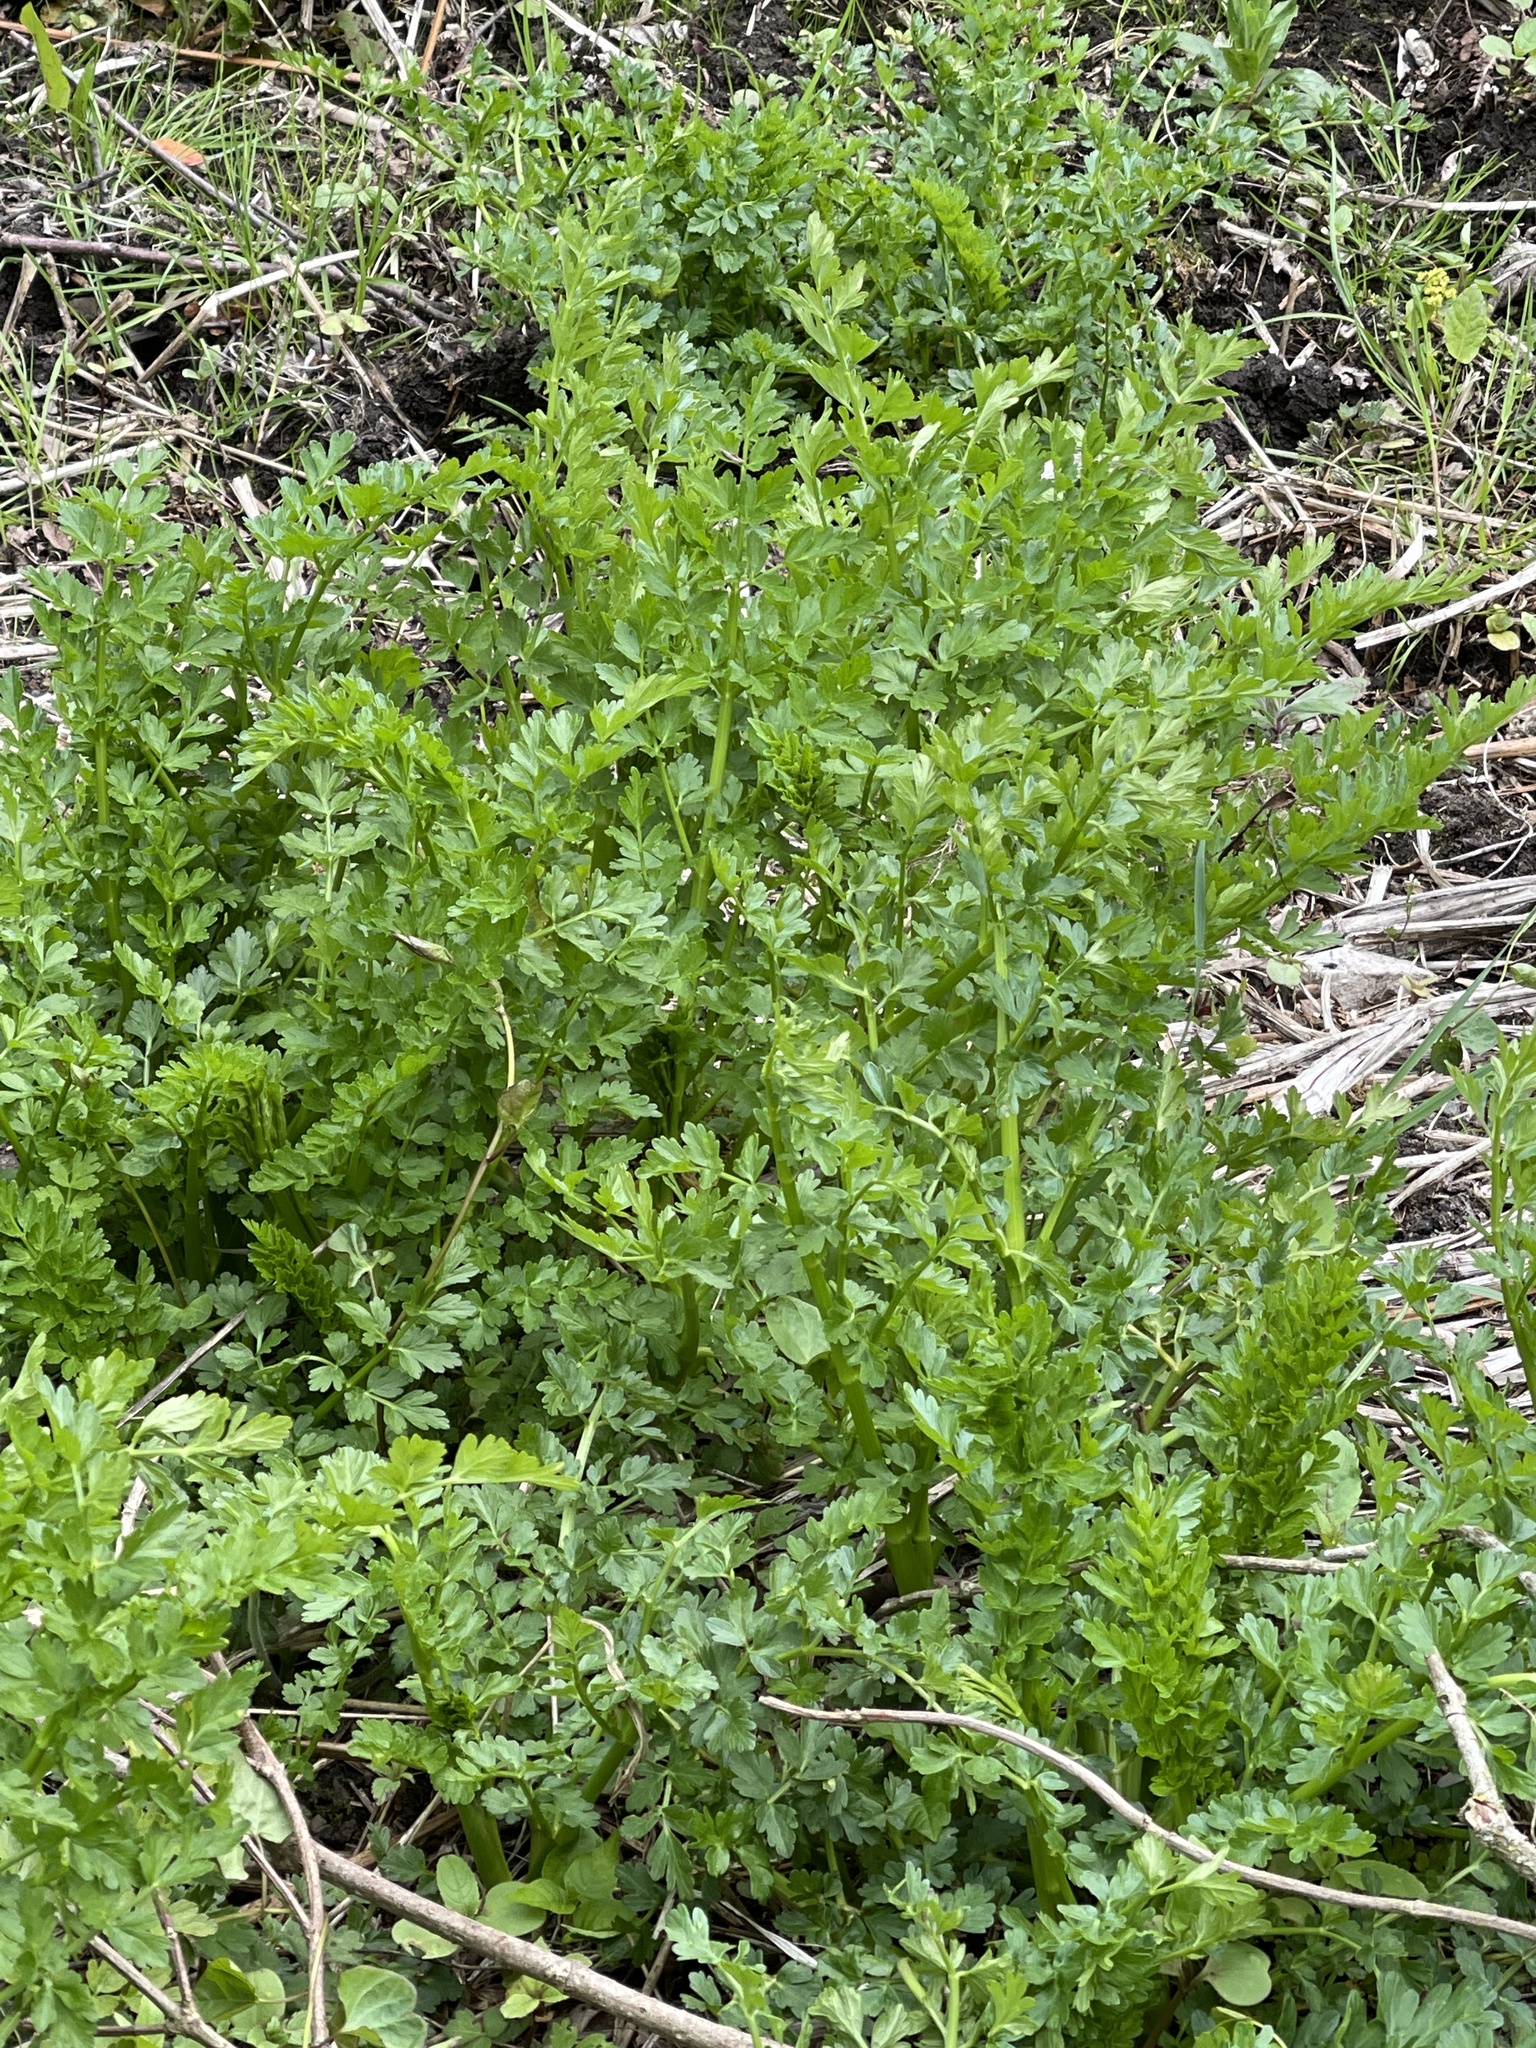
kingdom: Plantae
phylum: Tracheophyta
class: Magnoliopsida
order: Apiales
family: Apiaceae
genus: Oenanthe
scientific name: Oenanthe crocata
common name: Hemlock water-dropwort
